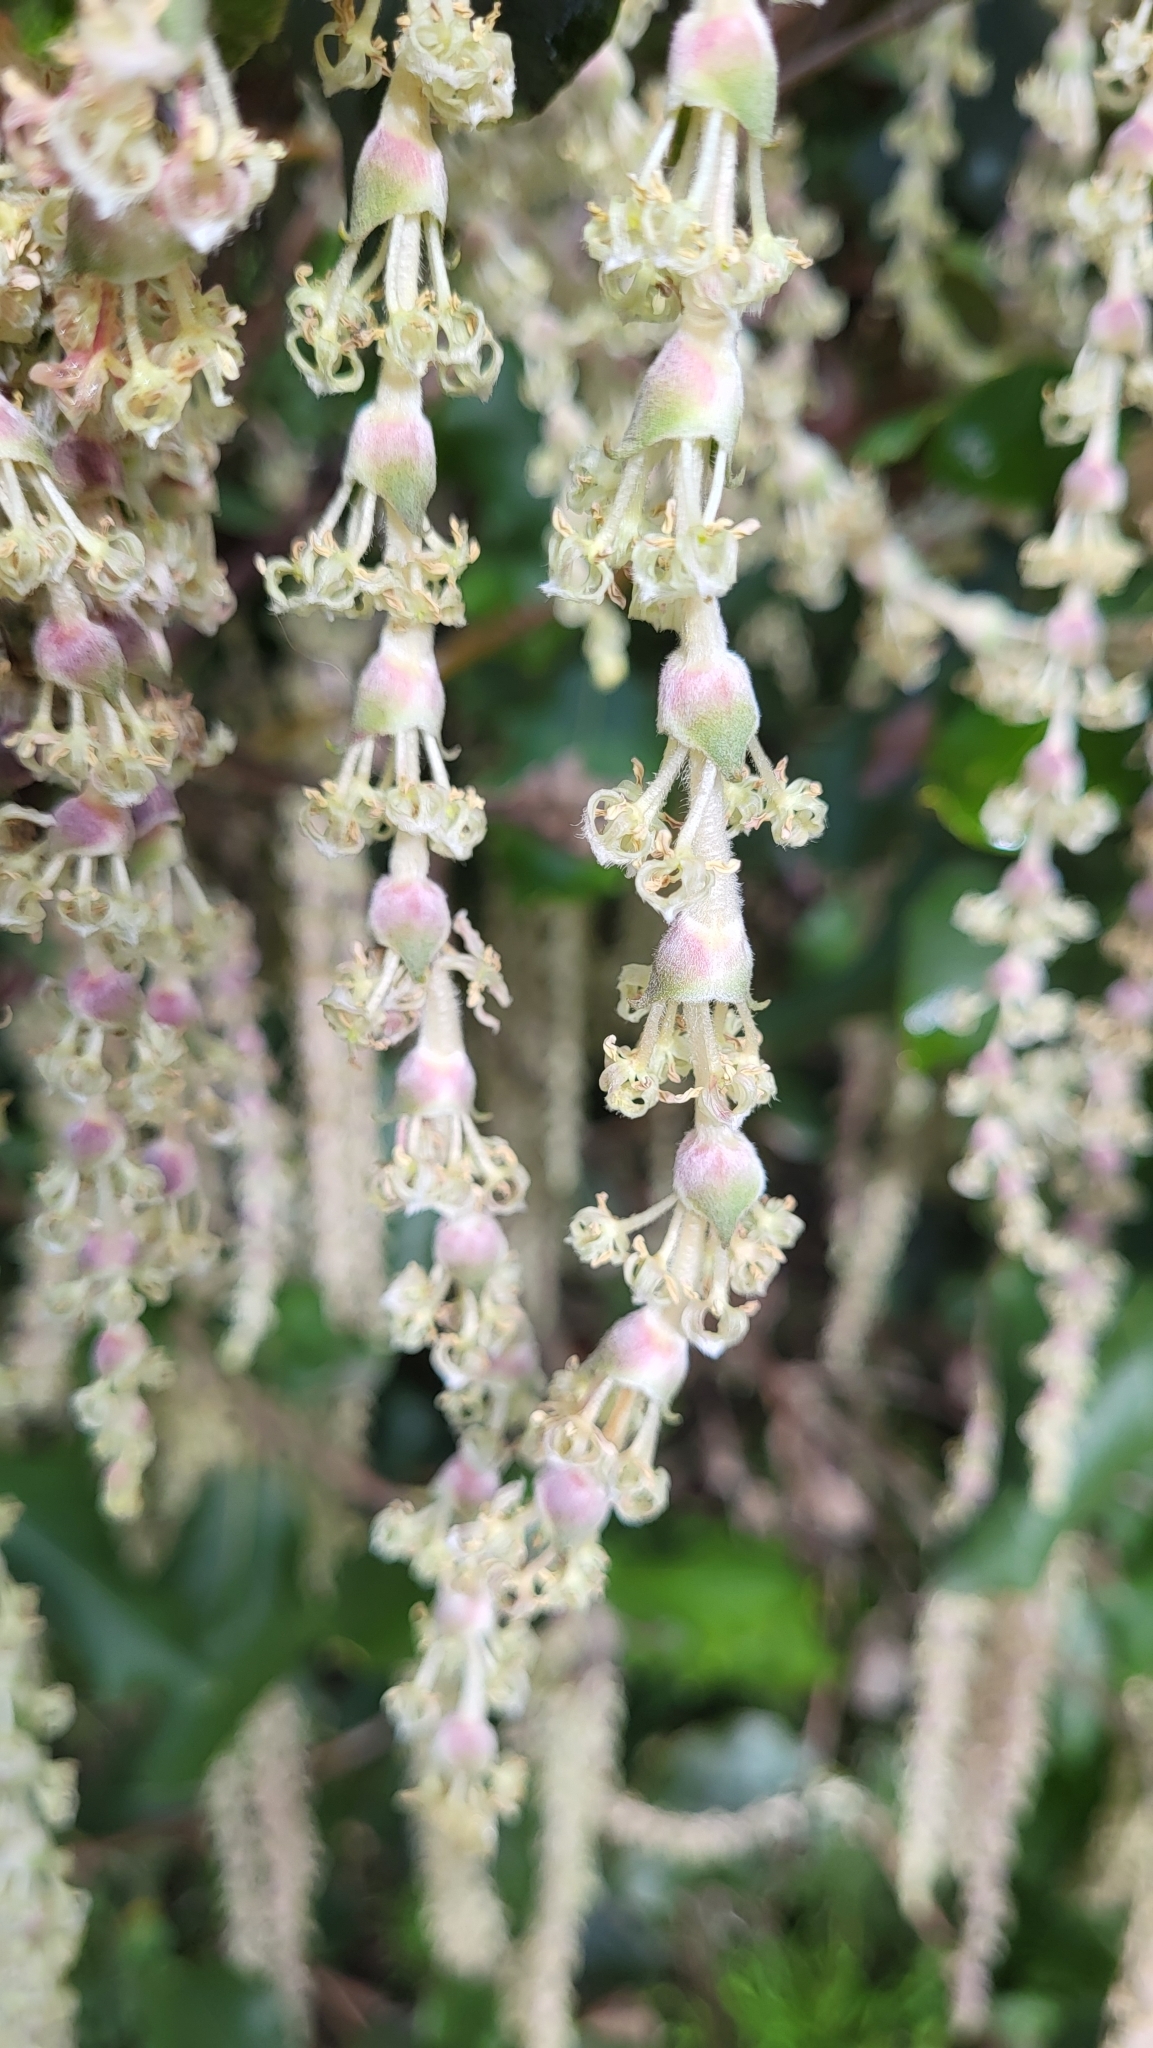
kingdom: Plantae
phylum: Tracheophyta
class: Magnoliopsida
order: Garryales
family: Garryaceae
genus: Garrya
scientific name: Garrya elliptica
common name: Silk-tassel
